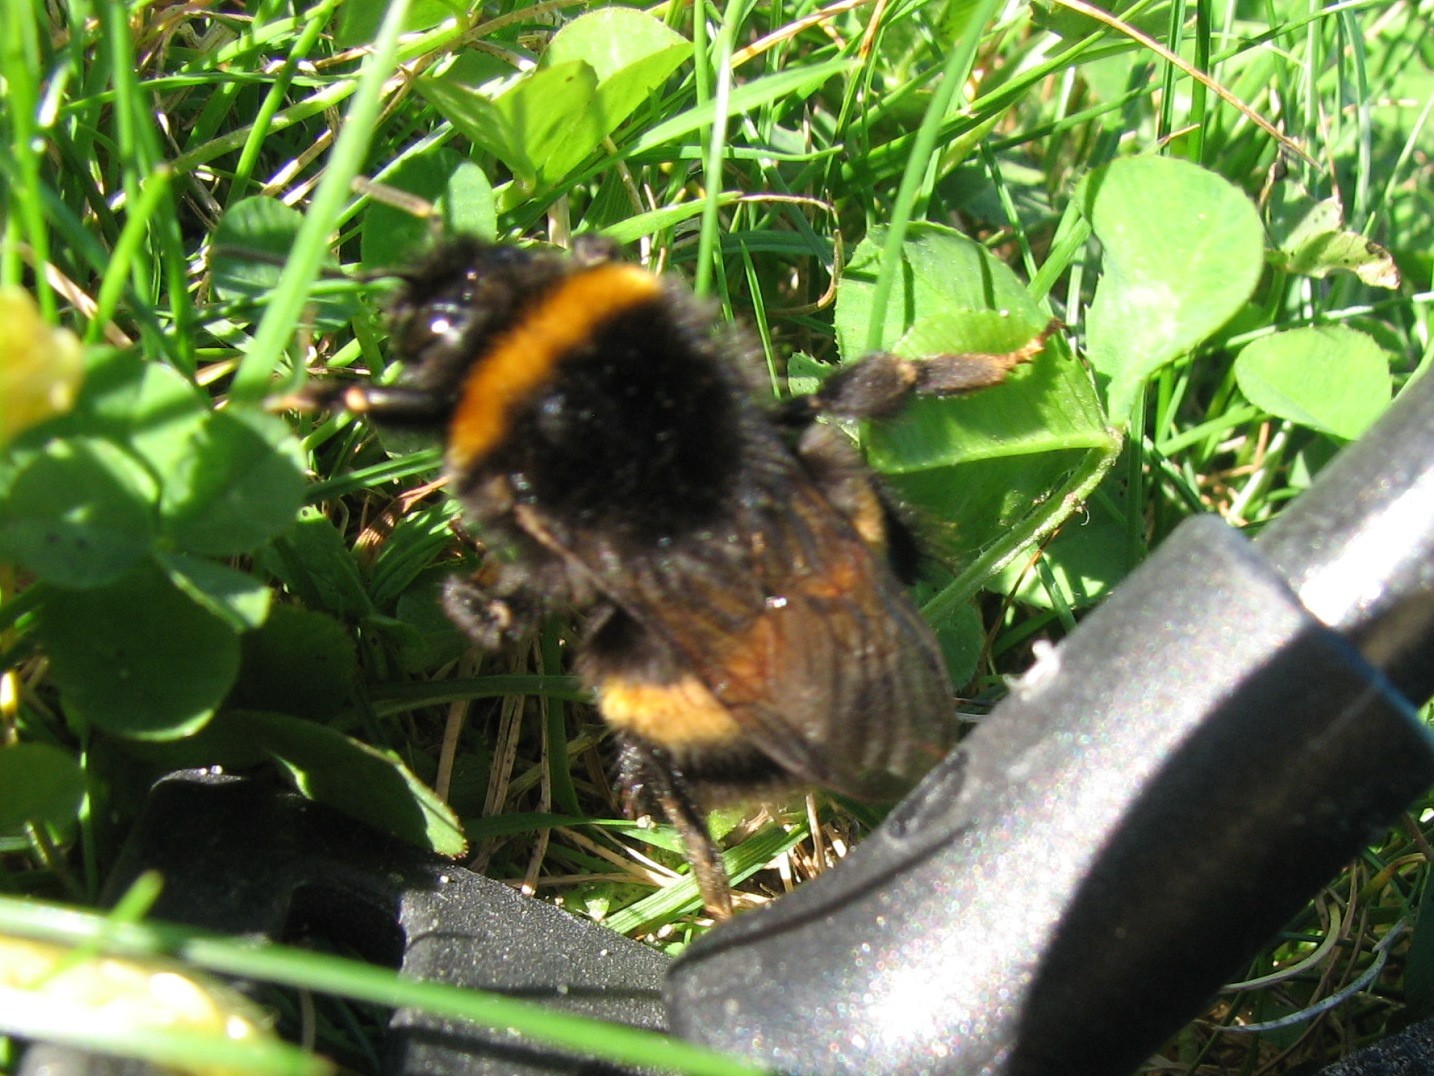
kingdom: Animalia
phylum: Arthropoda
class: Insecta
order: Hymenoptera
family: Apidae
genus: Bombus
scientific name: Bombus terrestris
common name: Buff-tailed bumblebee
